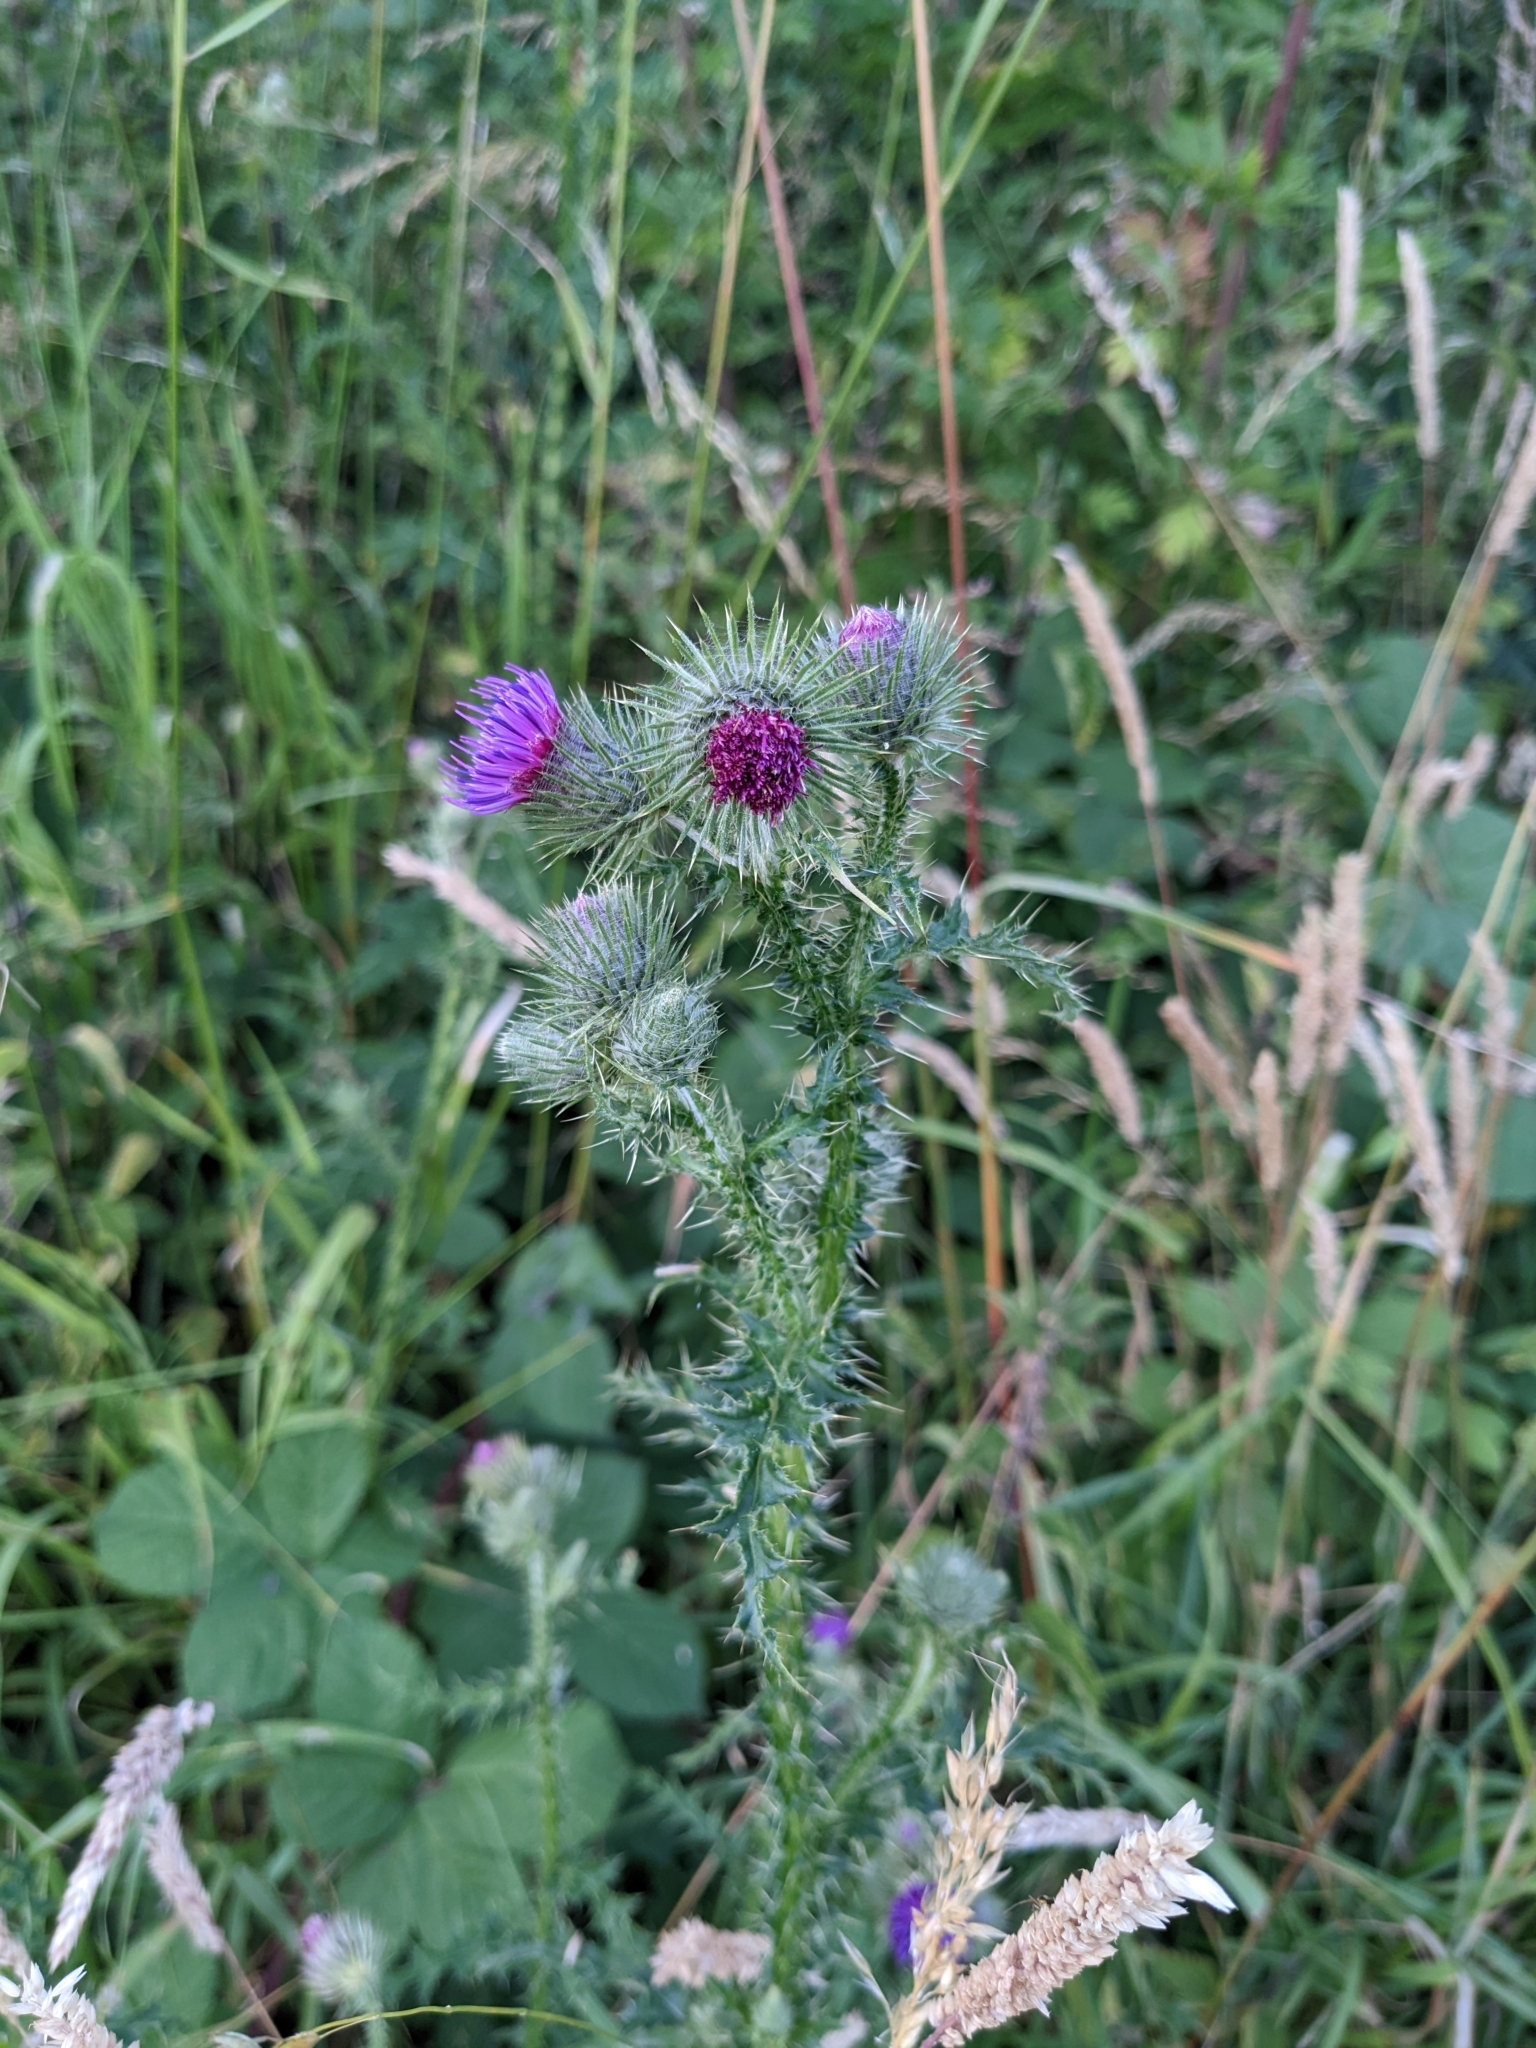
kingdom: Plantae
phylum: Tracheophyta
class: Magnoliopsida
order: Asterales
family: Asteraceae
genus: Carduus
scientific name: Carduus crispus
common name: Welted thistle
